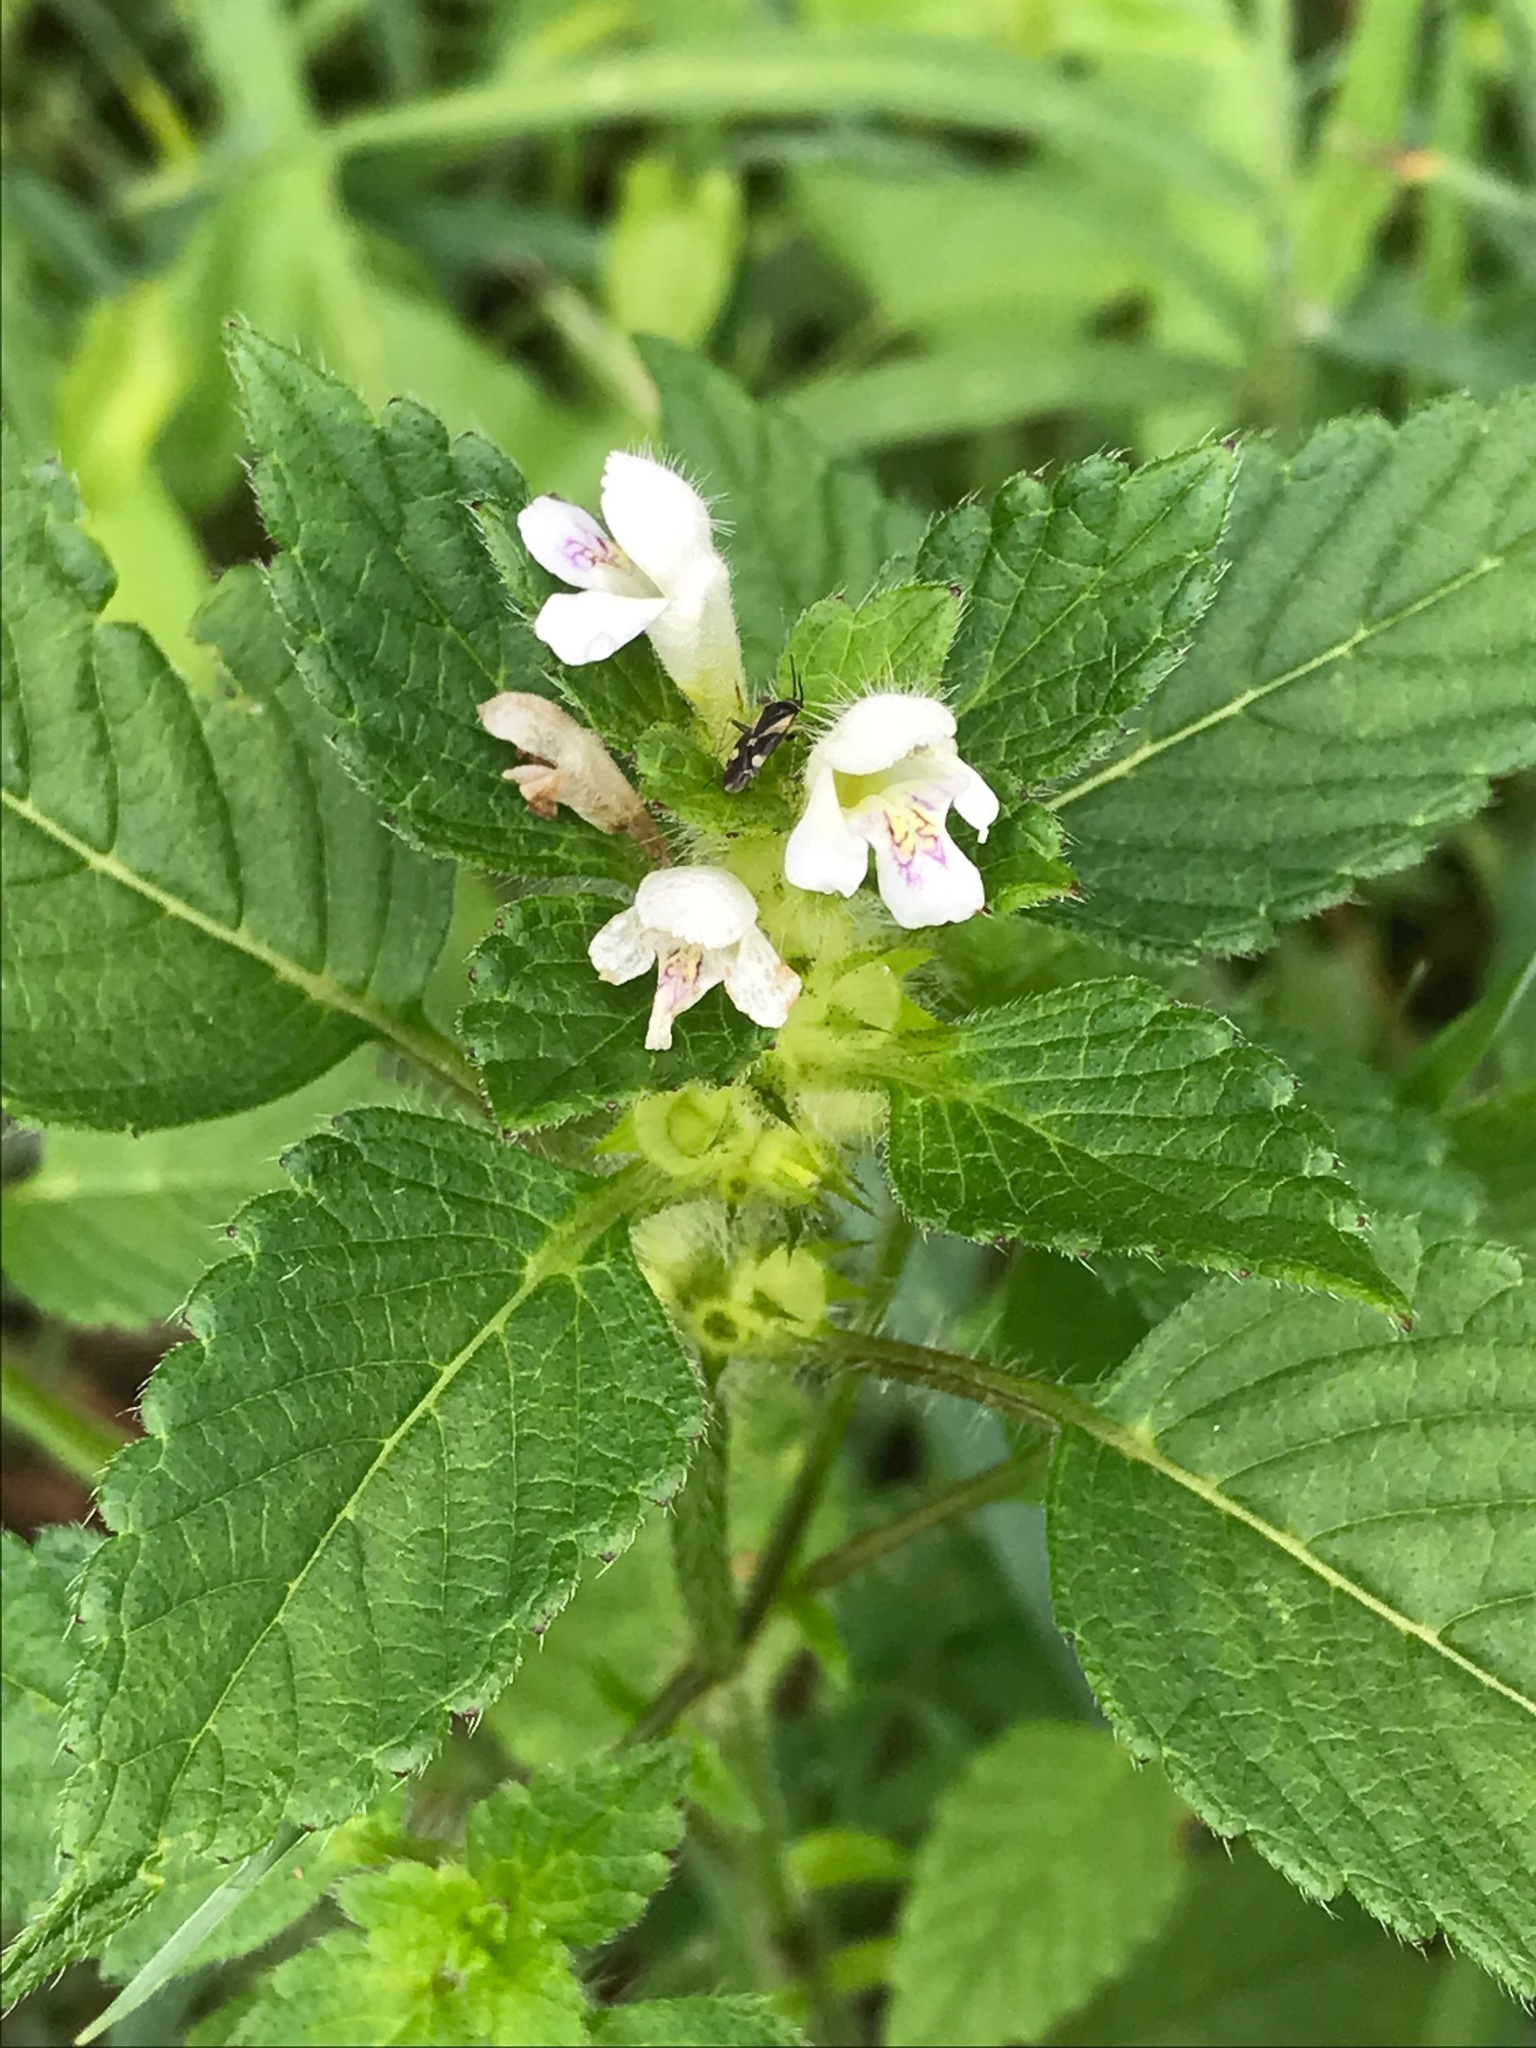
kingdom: Plantae
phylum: Tracheophyta
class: Magnoliopsida
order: Lamiales
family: Lamiaceae
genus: Galeopsis
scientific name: Galeopsis tetrahit
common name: Common hemp-nettle
